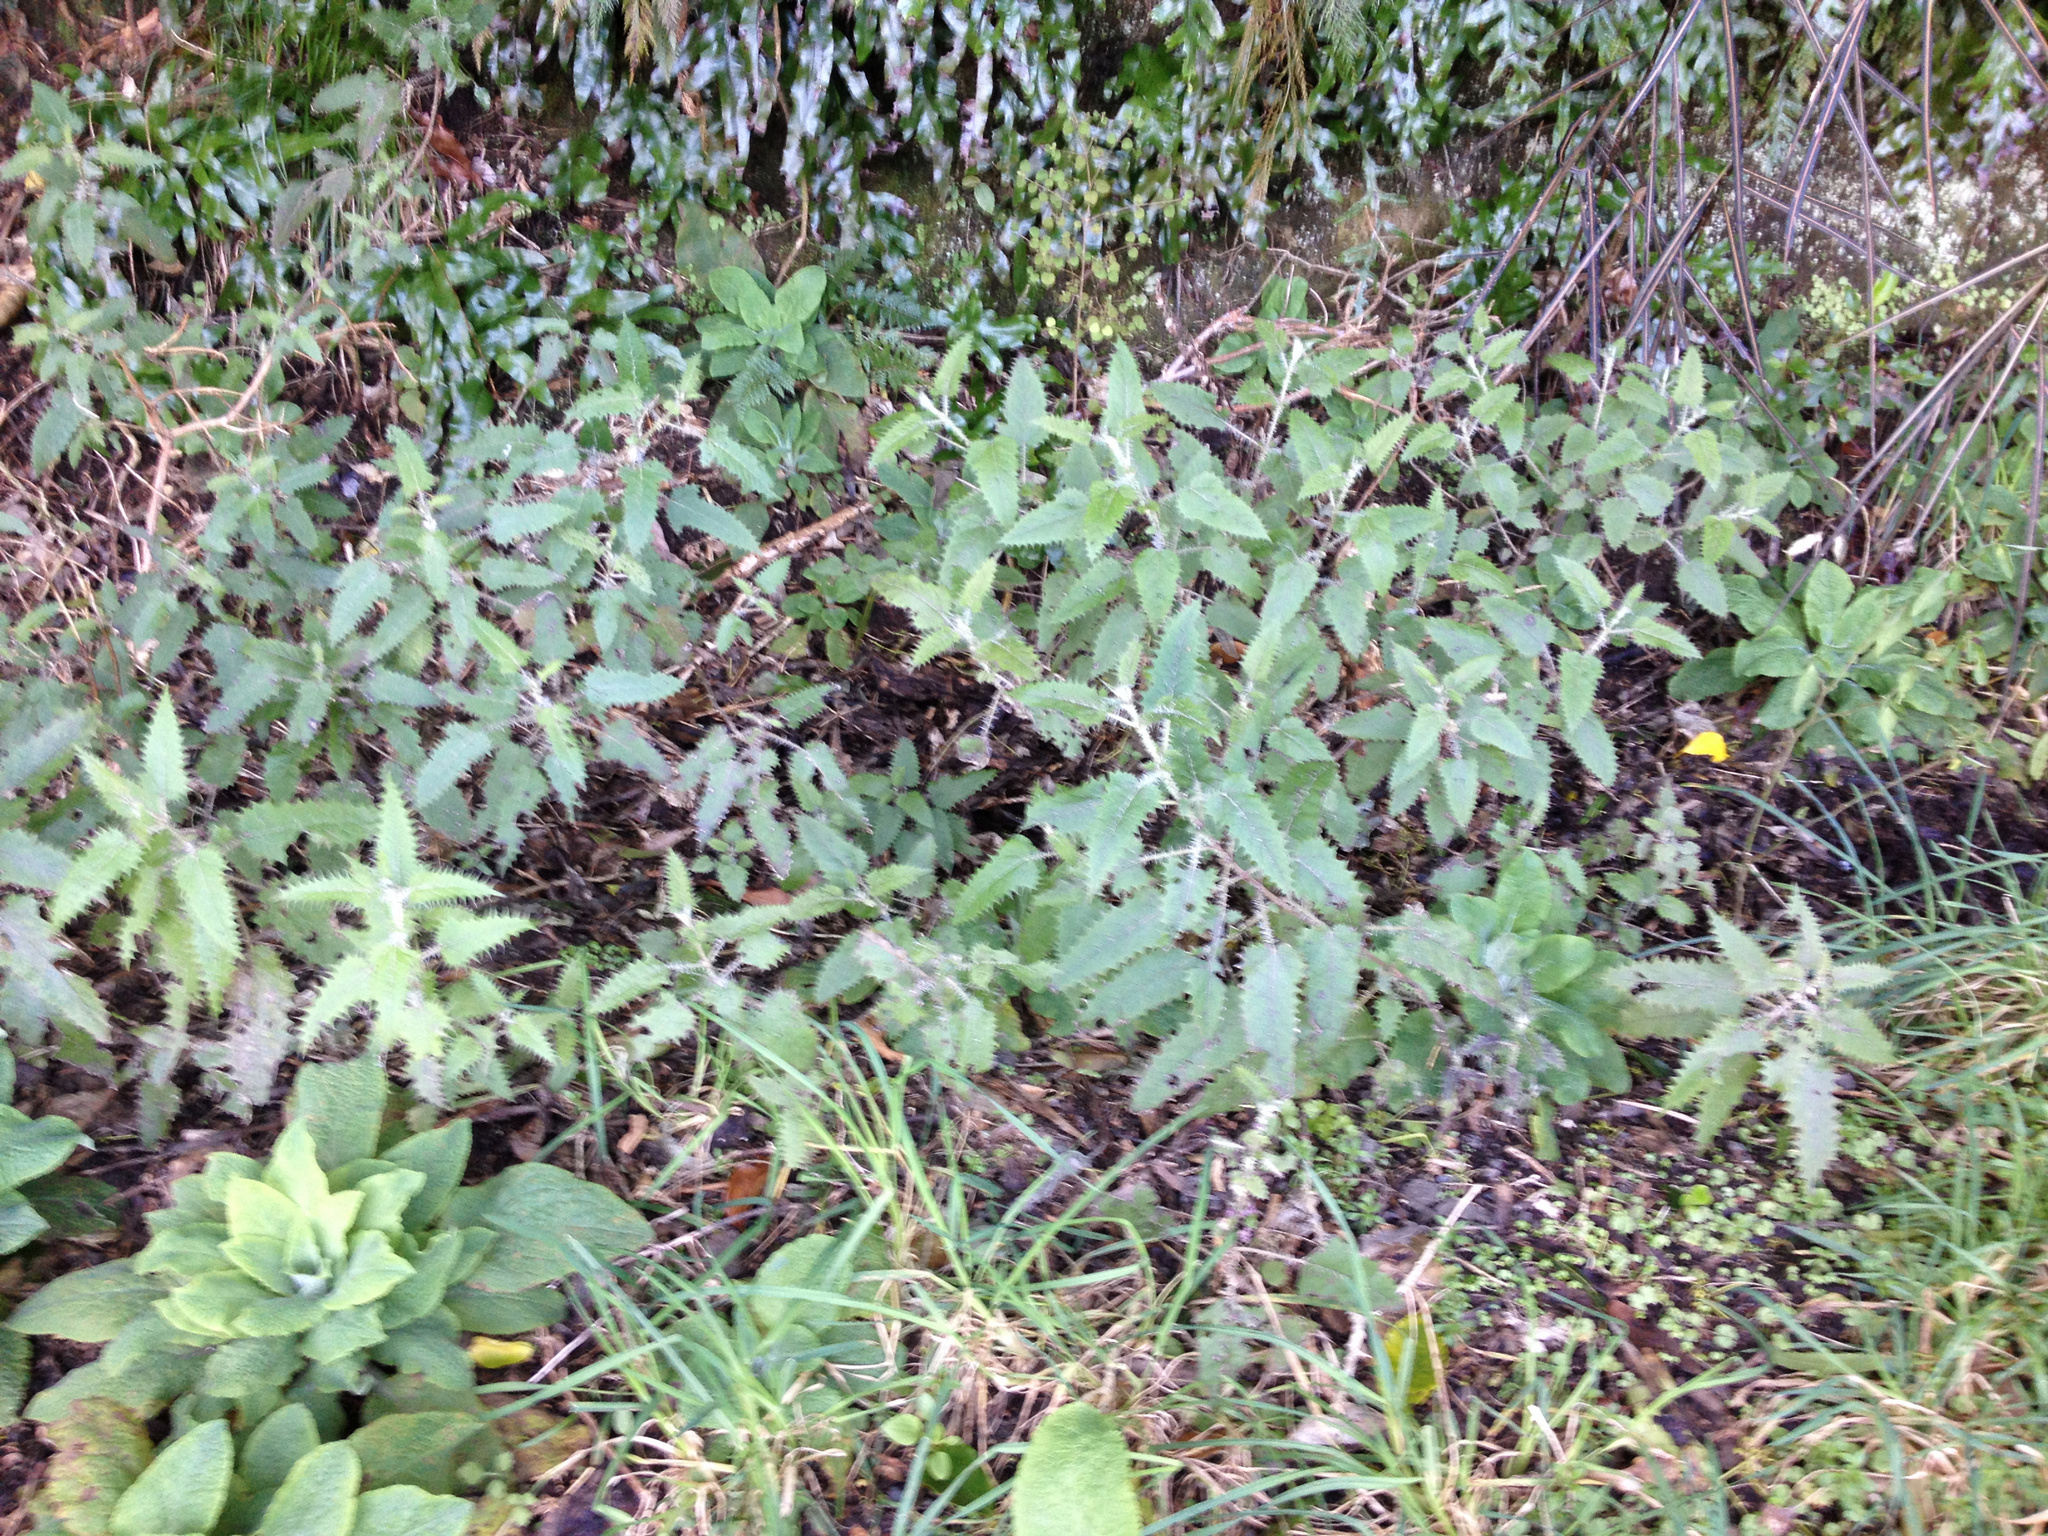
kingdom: Plantae
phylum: Tracheophyta
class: Magnoliopsida
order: Rosales
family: Urticaceae
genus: Urtica
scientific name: Urtica ferox
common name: Tree nettle
